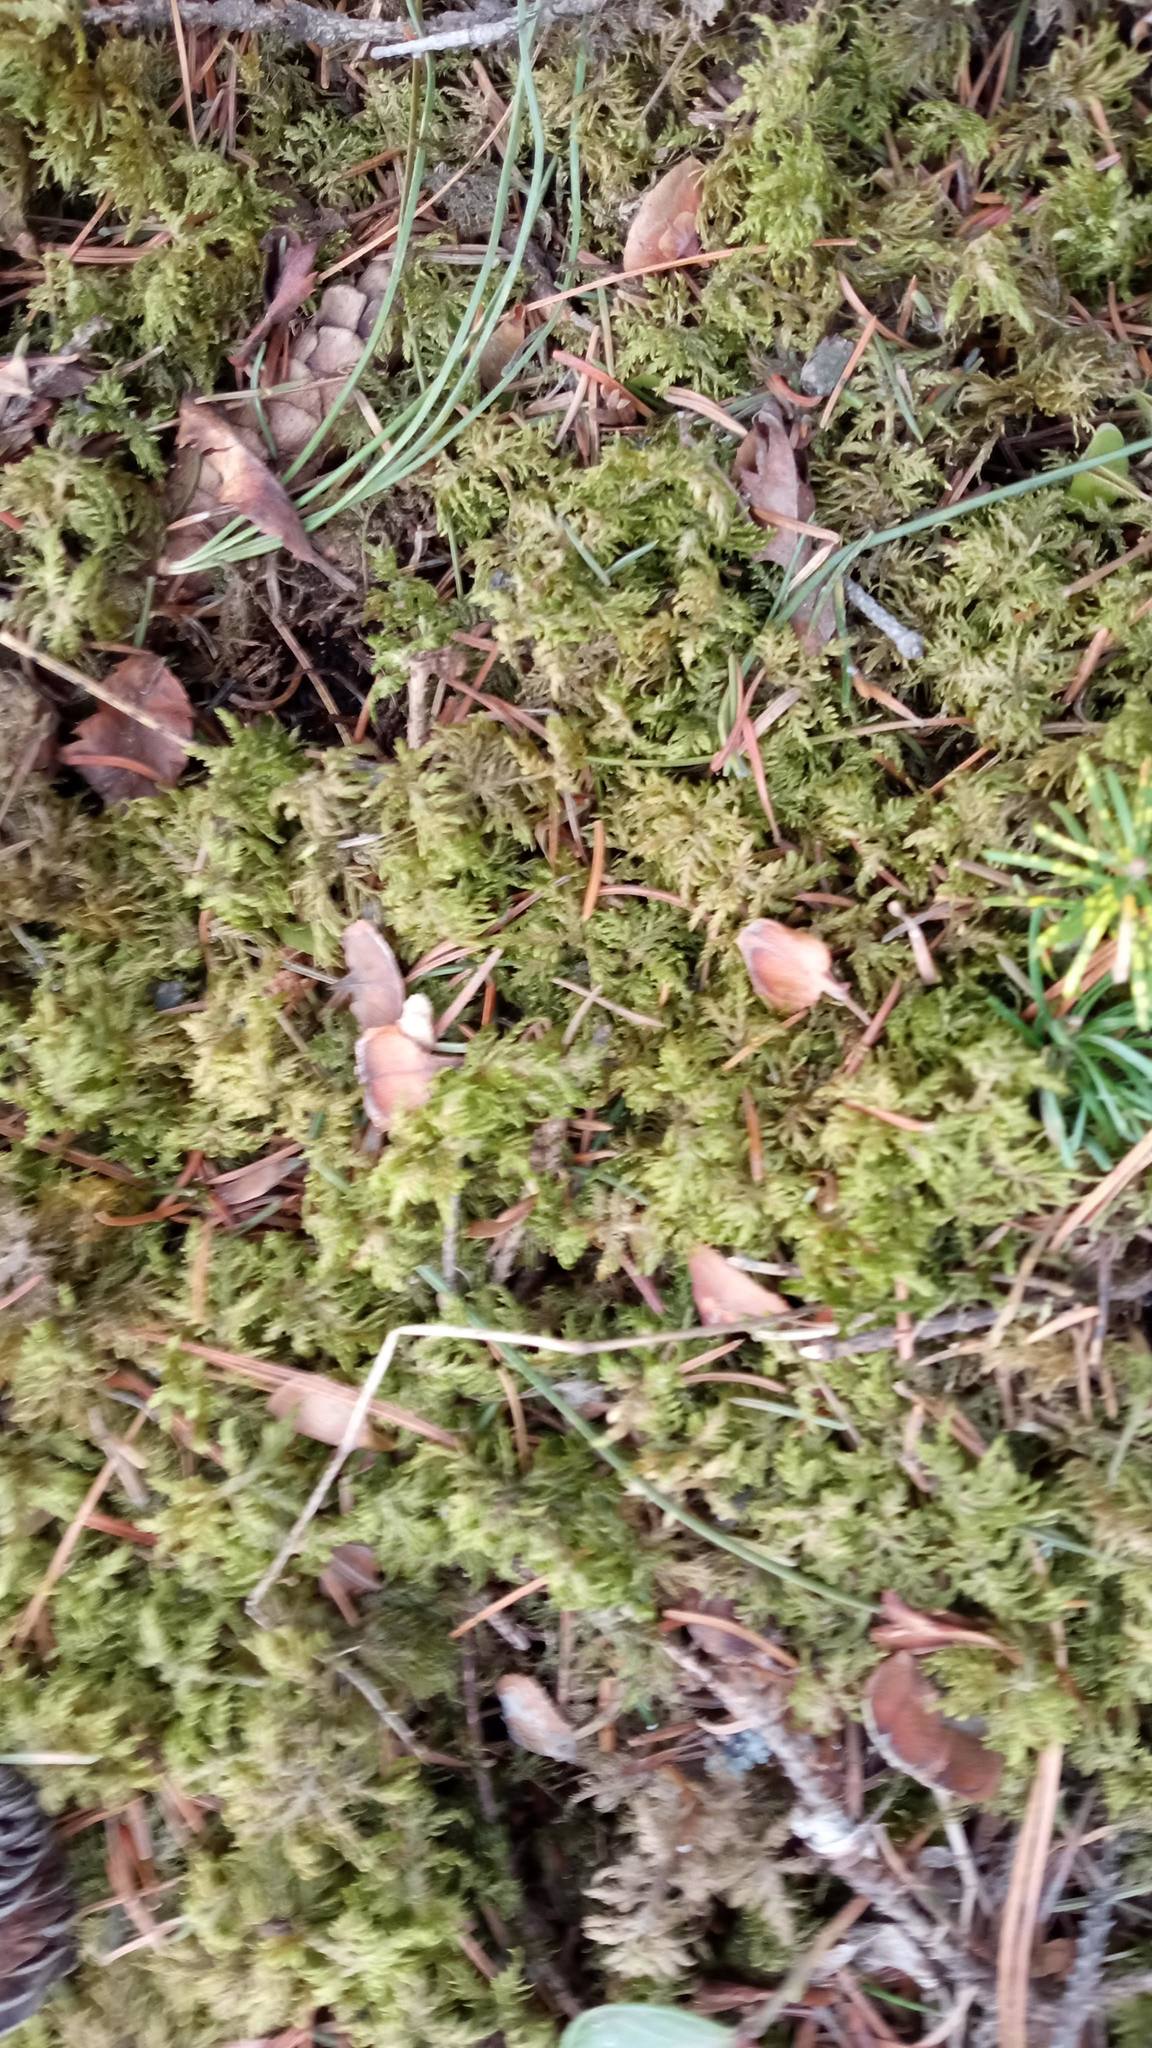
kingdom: Plantae
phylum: Bryophyta
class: Bryopsida
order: Hypnales
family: Hylocomiaceae
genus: Hylocomium
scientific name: Hylocomium splendens
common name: Stairstep moss
